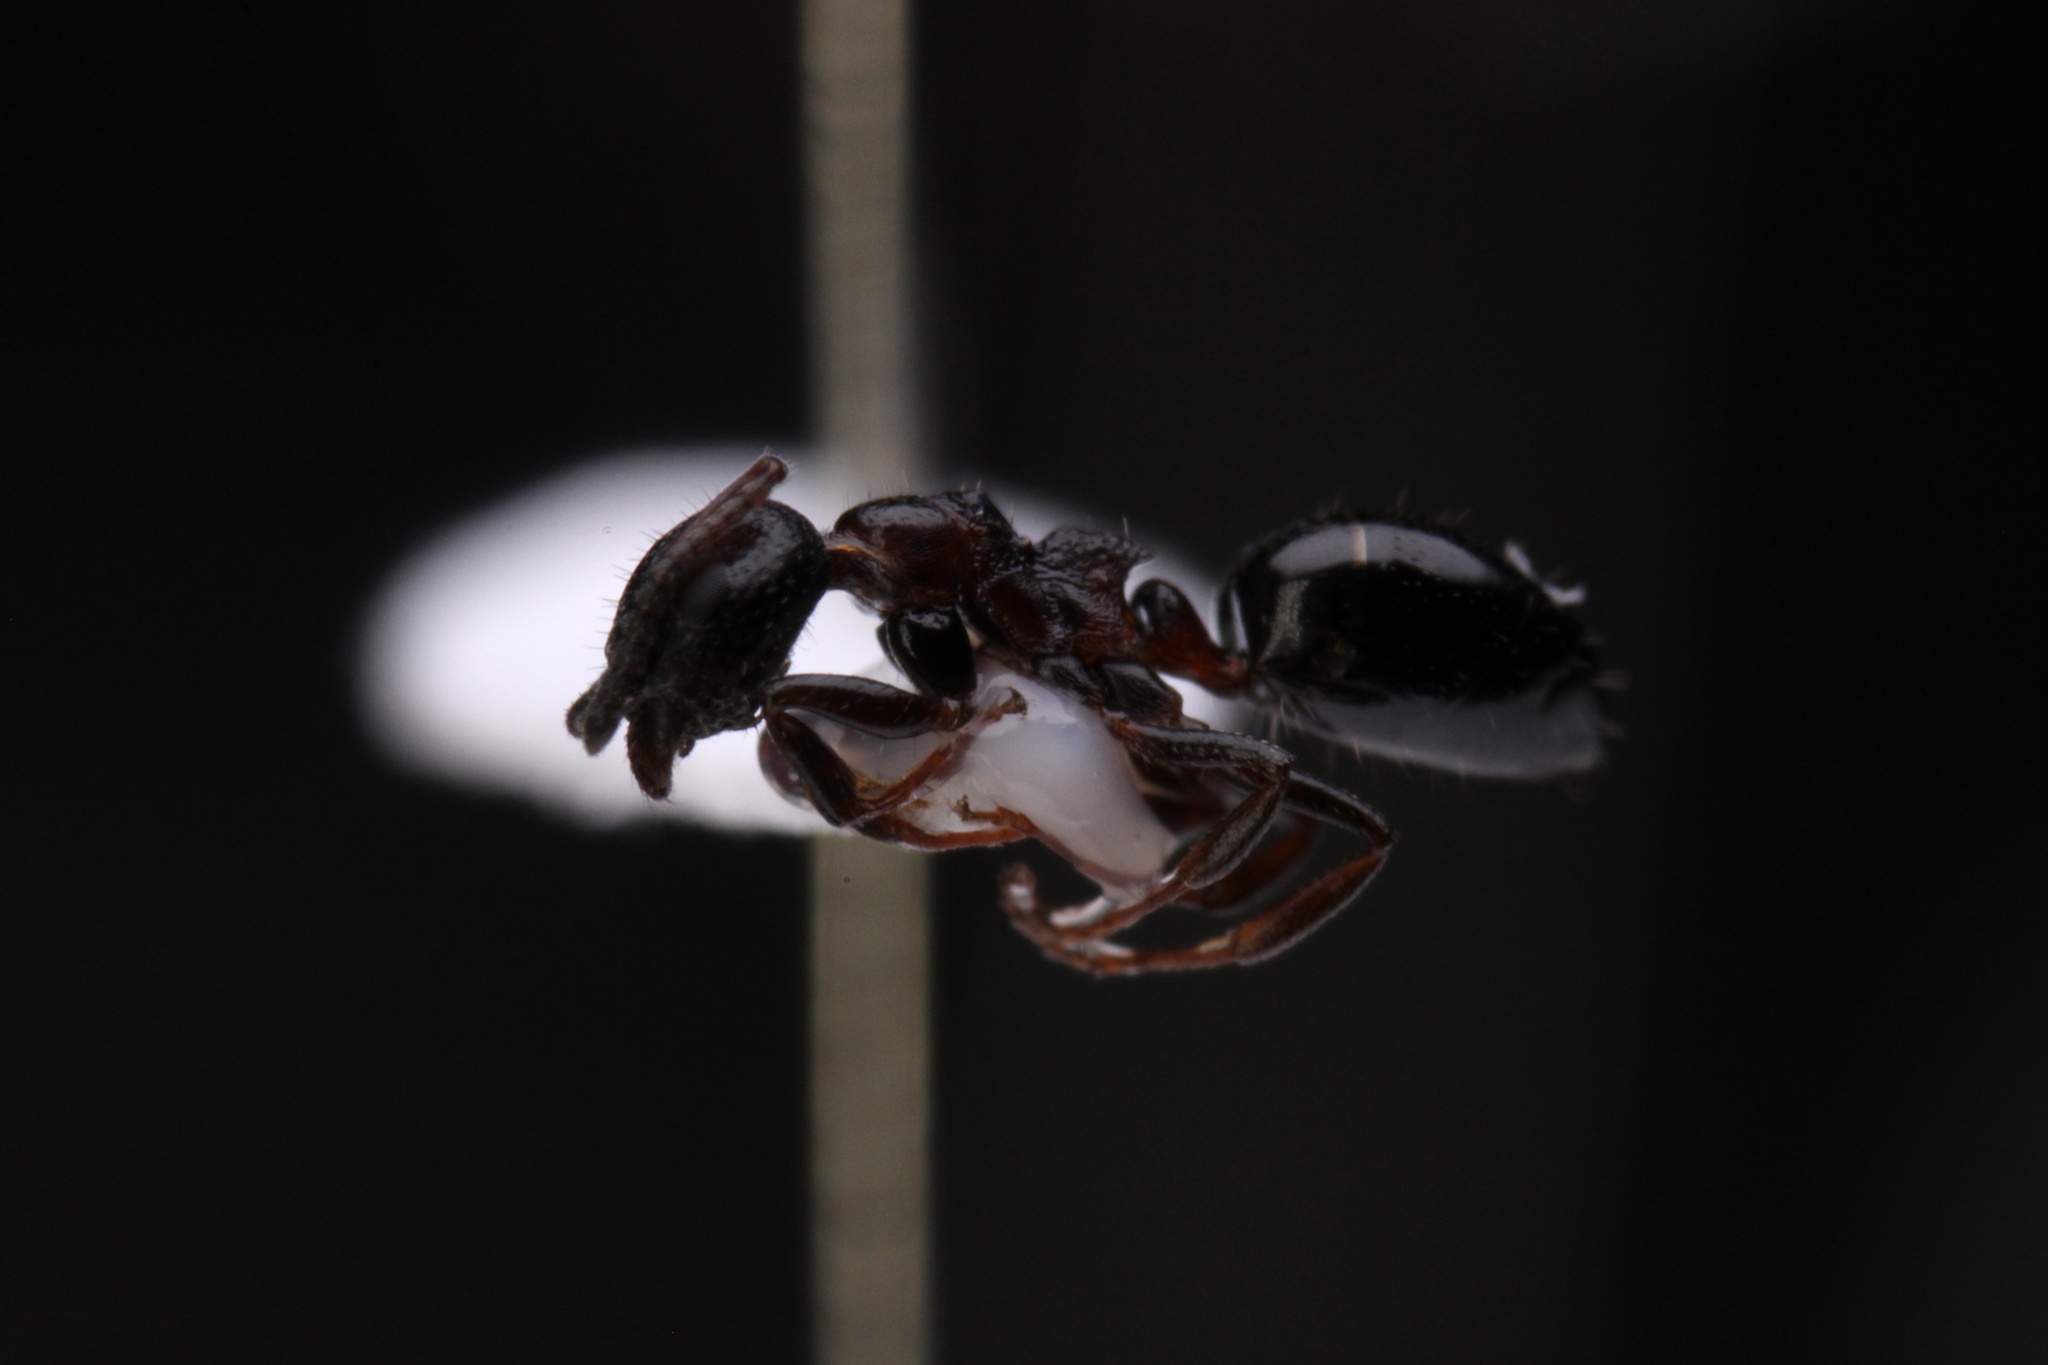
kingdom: Animalia
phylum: Arthropoda
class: Insecta
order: Hymenoptera
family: Formicidae
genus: Dolichoderus
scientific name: Dolichoderus pustulatus
